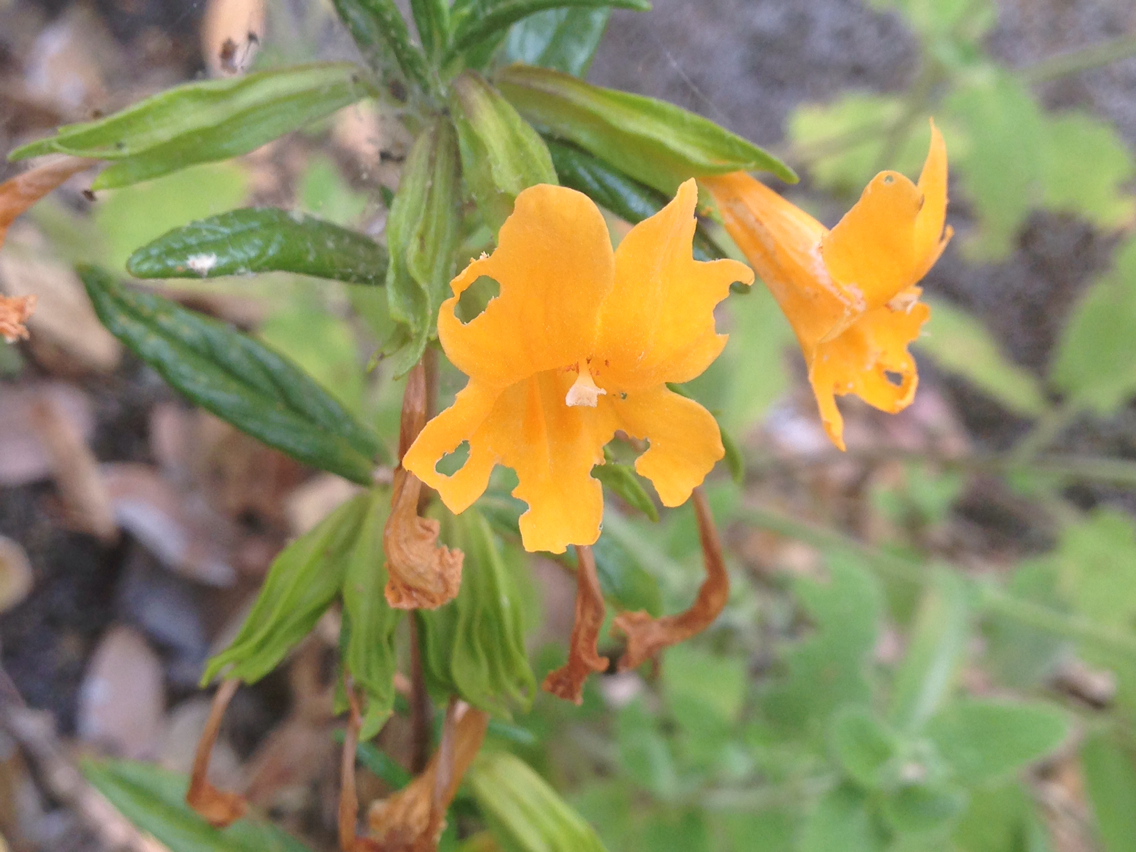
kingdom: Plantae
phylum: Tracheophyta
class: Magnoliopsida
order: Lamiales
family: Phrymaceae
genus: Diplacus
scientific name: Diplacus aurantiacus
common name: Bush monkey-flower
